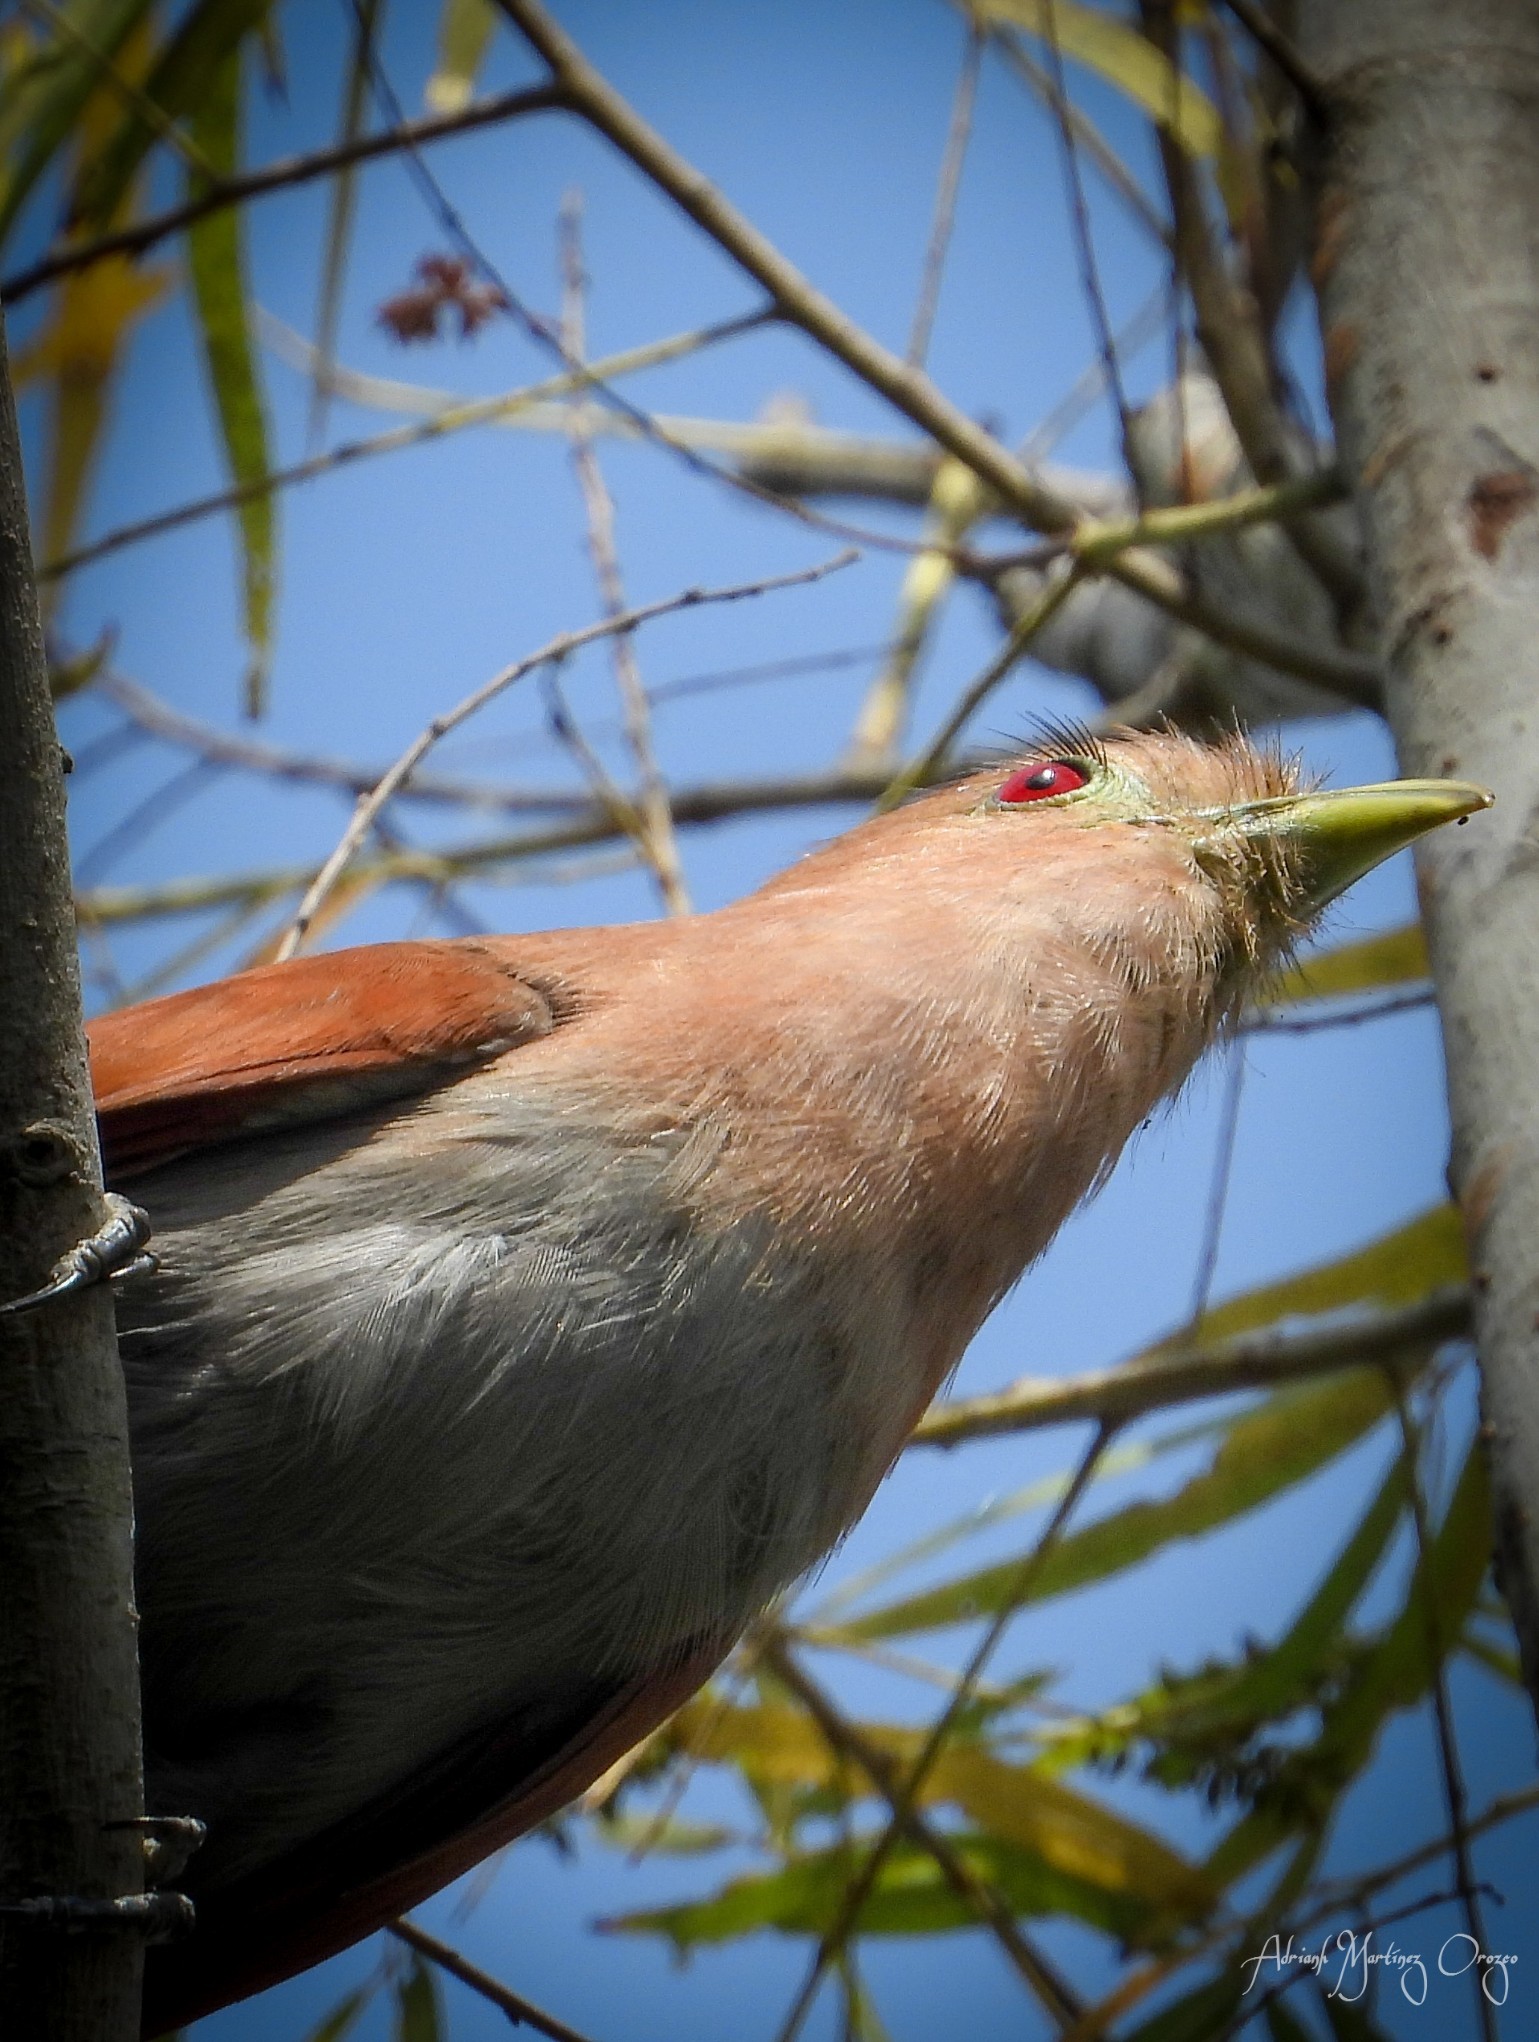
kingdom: Animalia
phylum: Chordata
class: Aves
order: Cuculiformes
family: Cuculidae
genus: Piaya
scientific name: Piaya cayana
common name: Squirrel cuckoo
